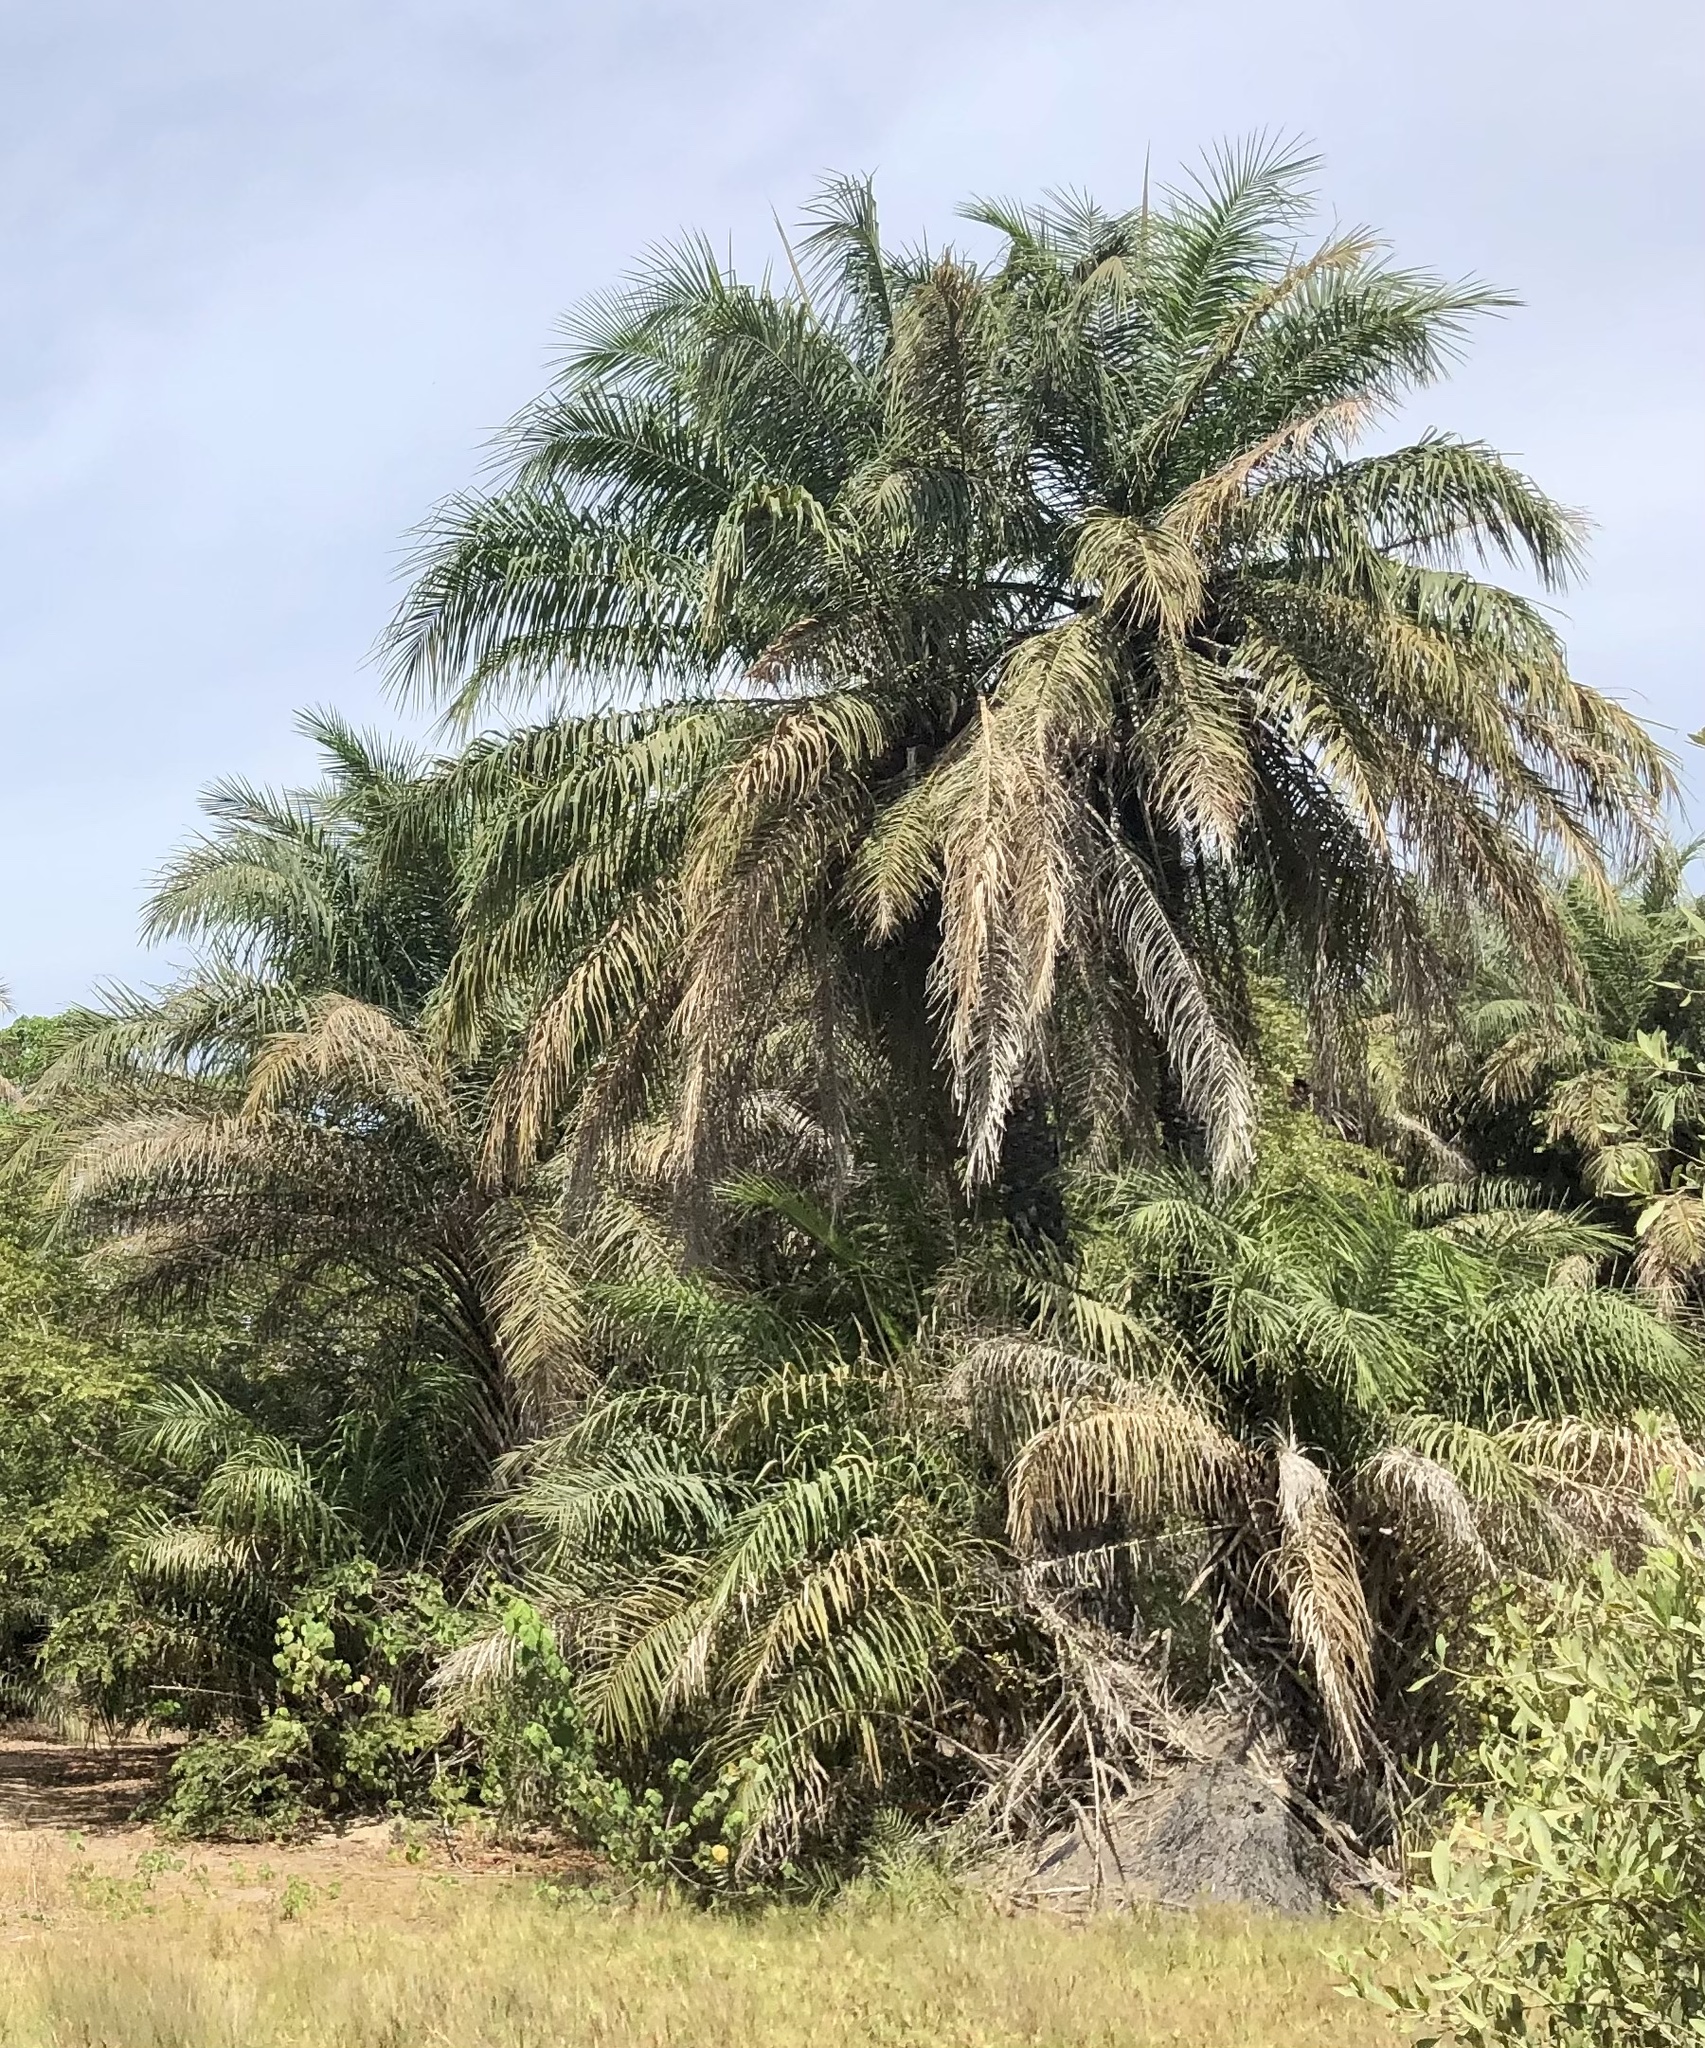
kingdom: Plantae
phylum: Tracheophyta
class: Liliopsida
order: Arecales
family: Arecaceae
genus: Elaeis
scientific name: Elaeis guineensis
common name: Oil palm
